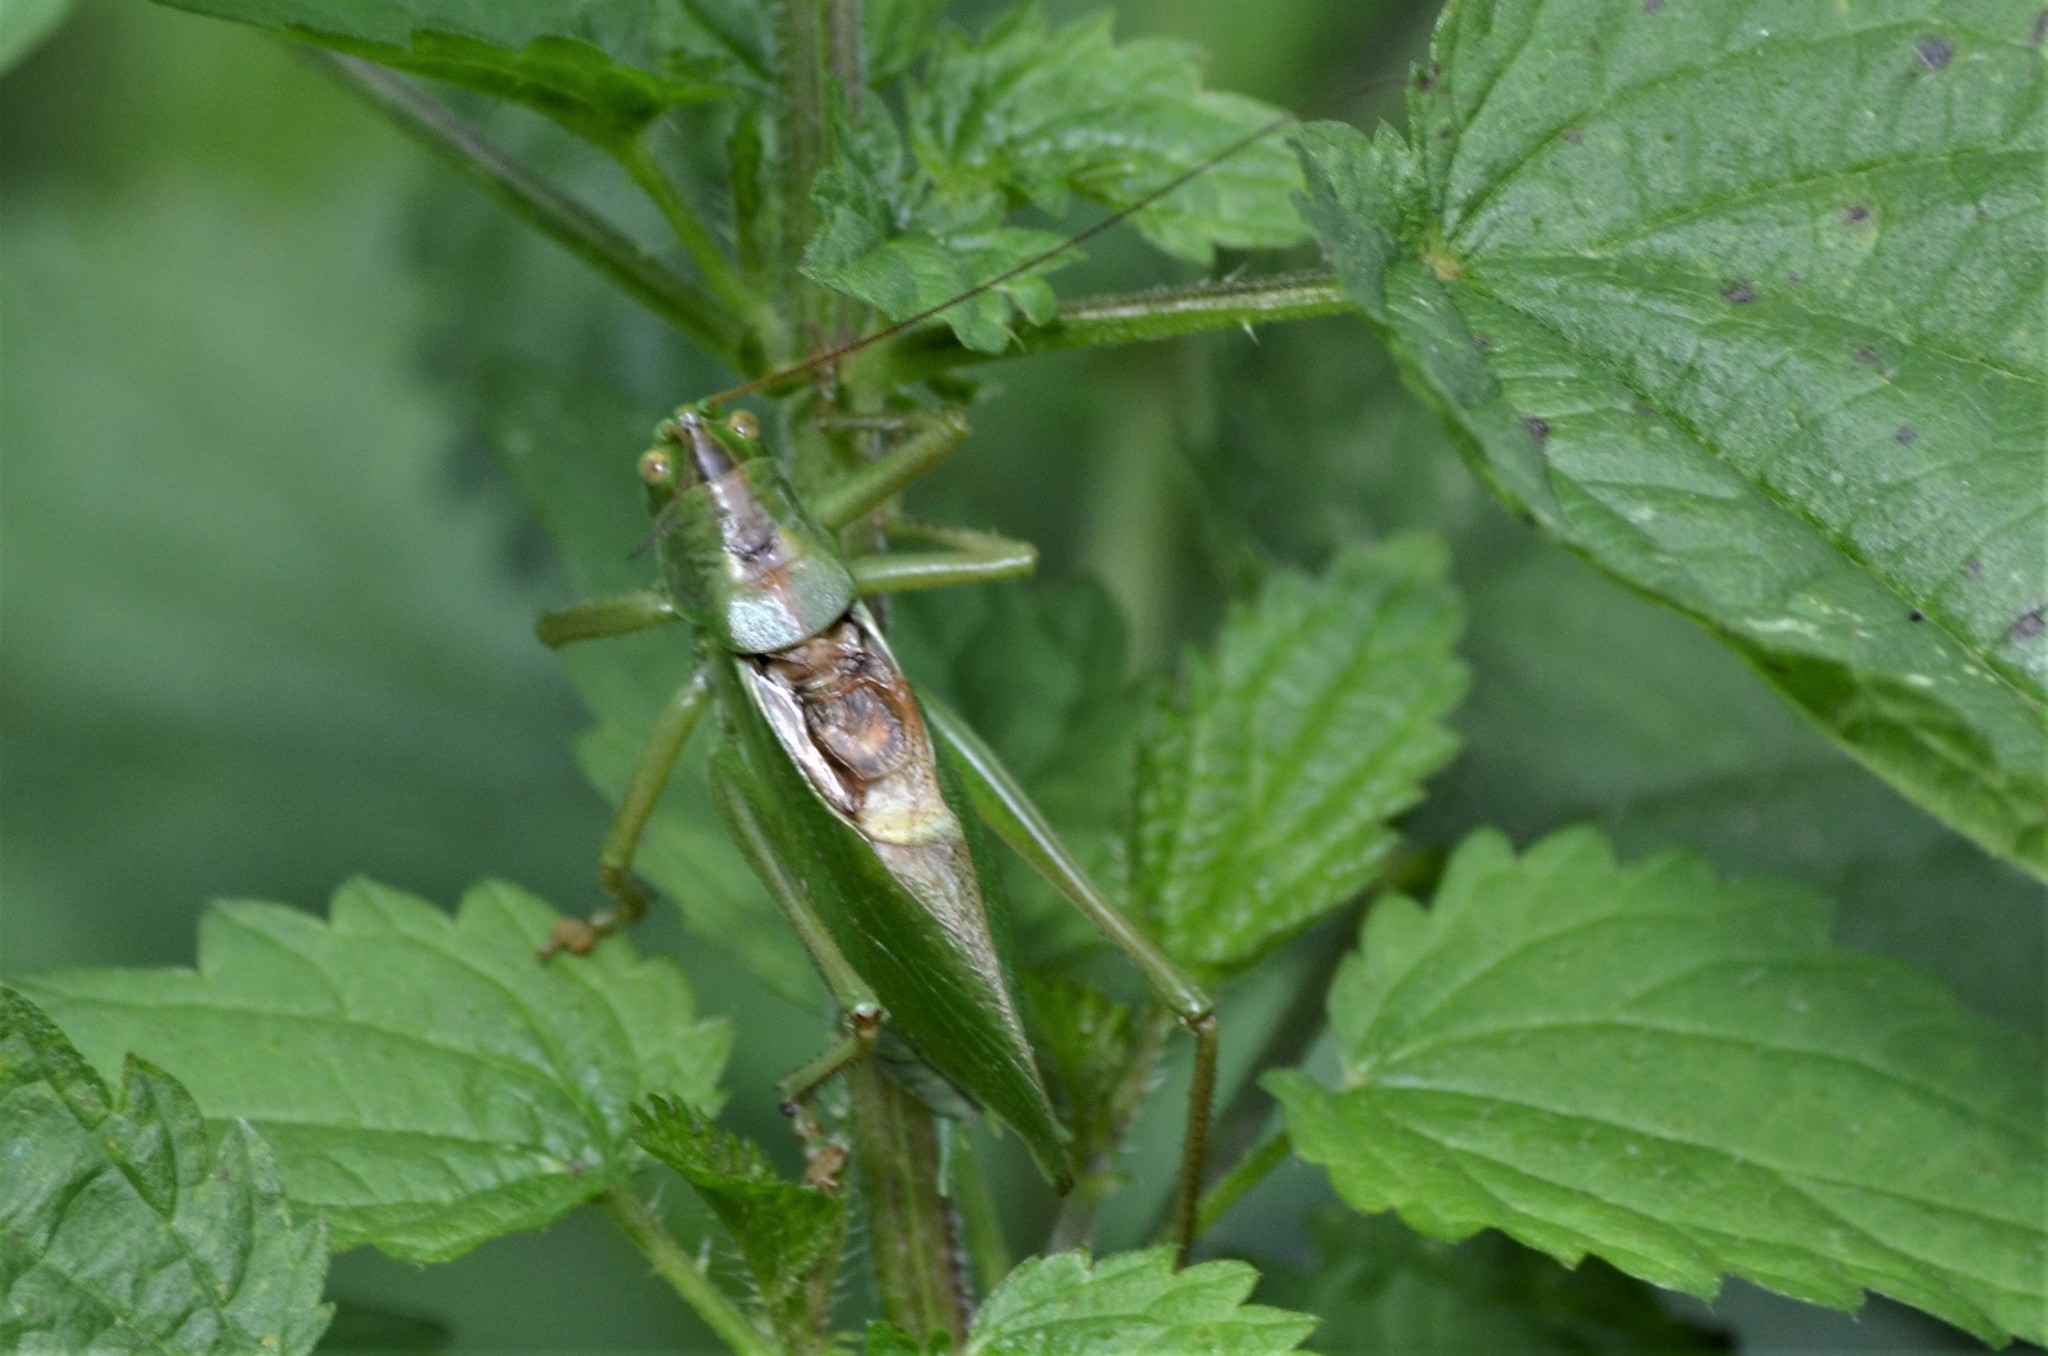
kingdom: Animalia
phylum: Arthropoda
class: Insecta
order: Orthoptera
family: Tettigoniidae
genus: Tettigonia
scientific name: Tettigonia cantans
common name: Upland green bush-cricket
